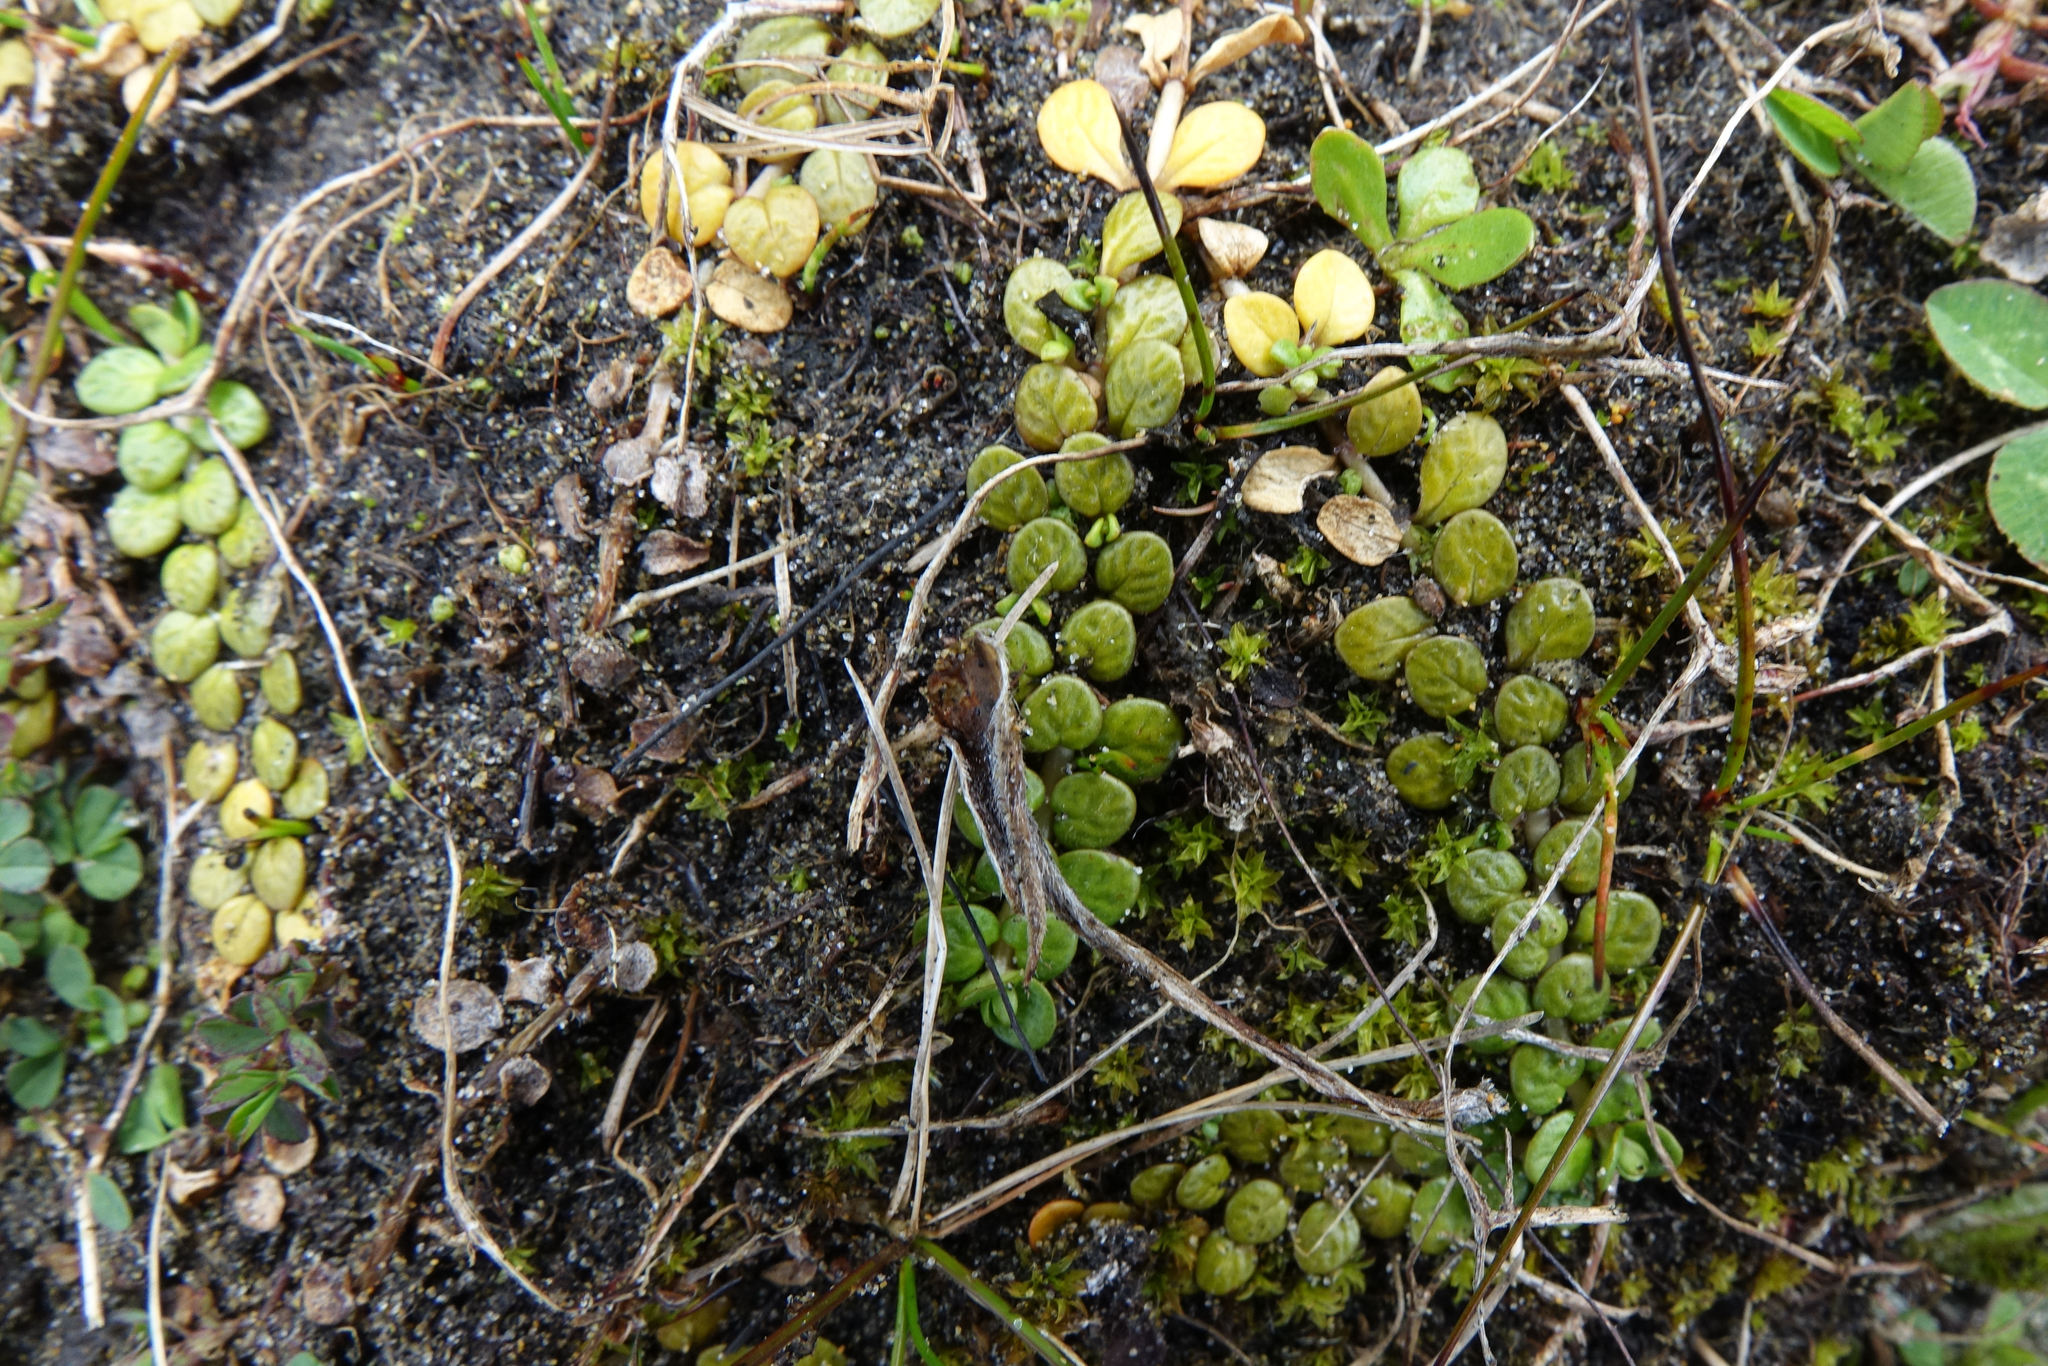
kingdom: Plantae
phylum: Tracheophyta
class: Magnoliopsida
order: Myrtales
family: Onagraceae
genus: Epilobium
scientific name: Epilobium komarovianum
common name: Bronzy willowherb
